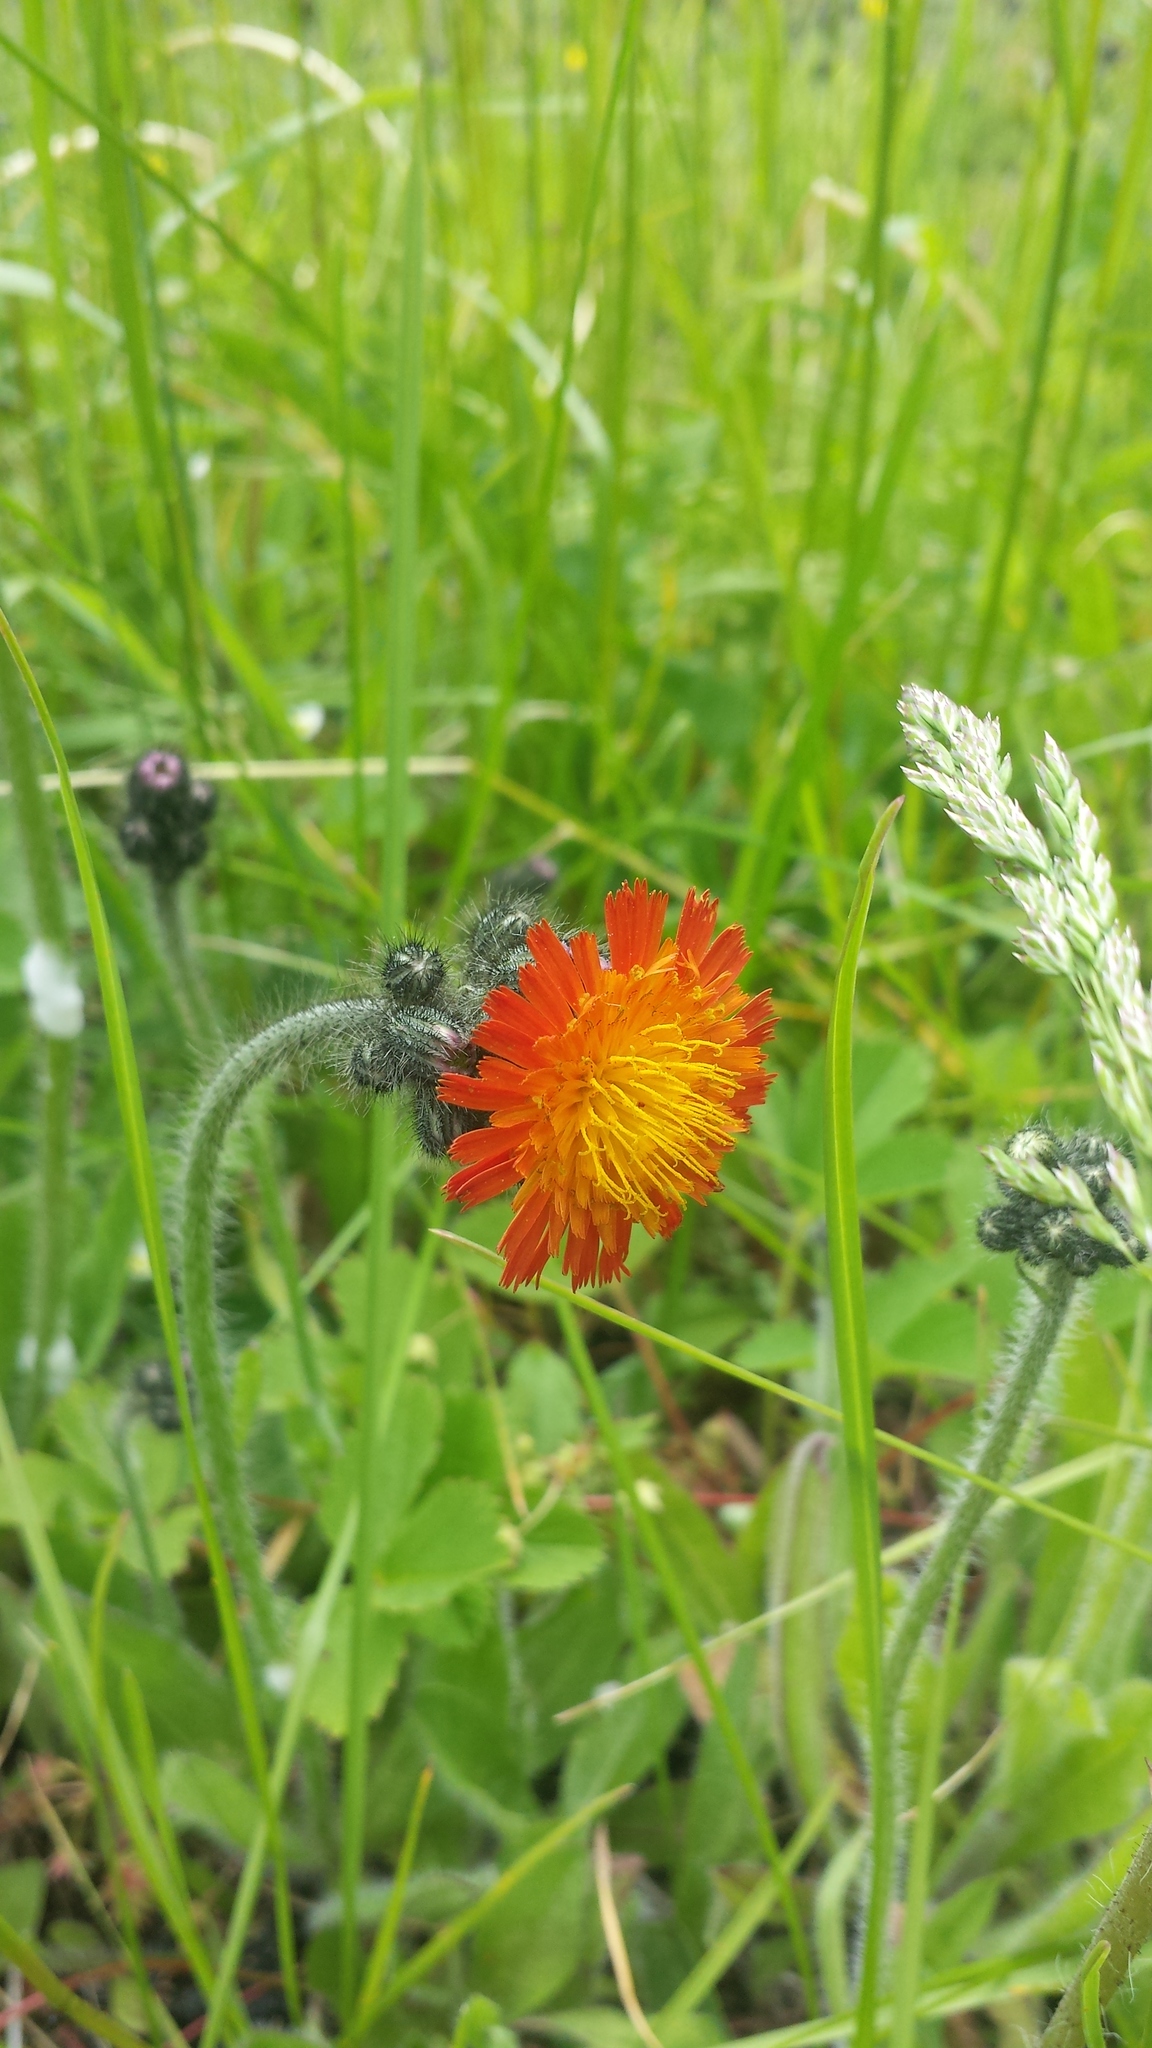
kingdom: Plantae
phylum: Tracheophyta
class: Magnoliopsida
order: Asterales
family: Asteraceae
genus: Pilosella
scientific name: Pilosella aurantiaca
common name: Fox-and-cubs
